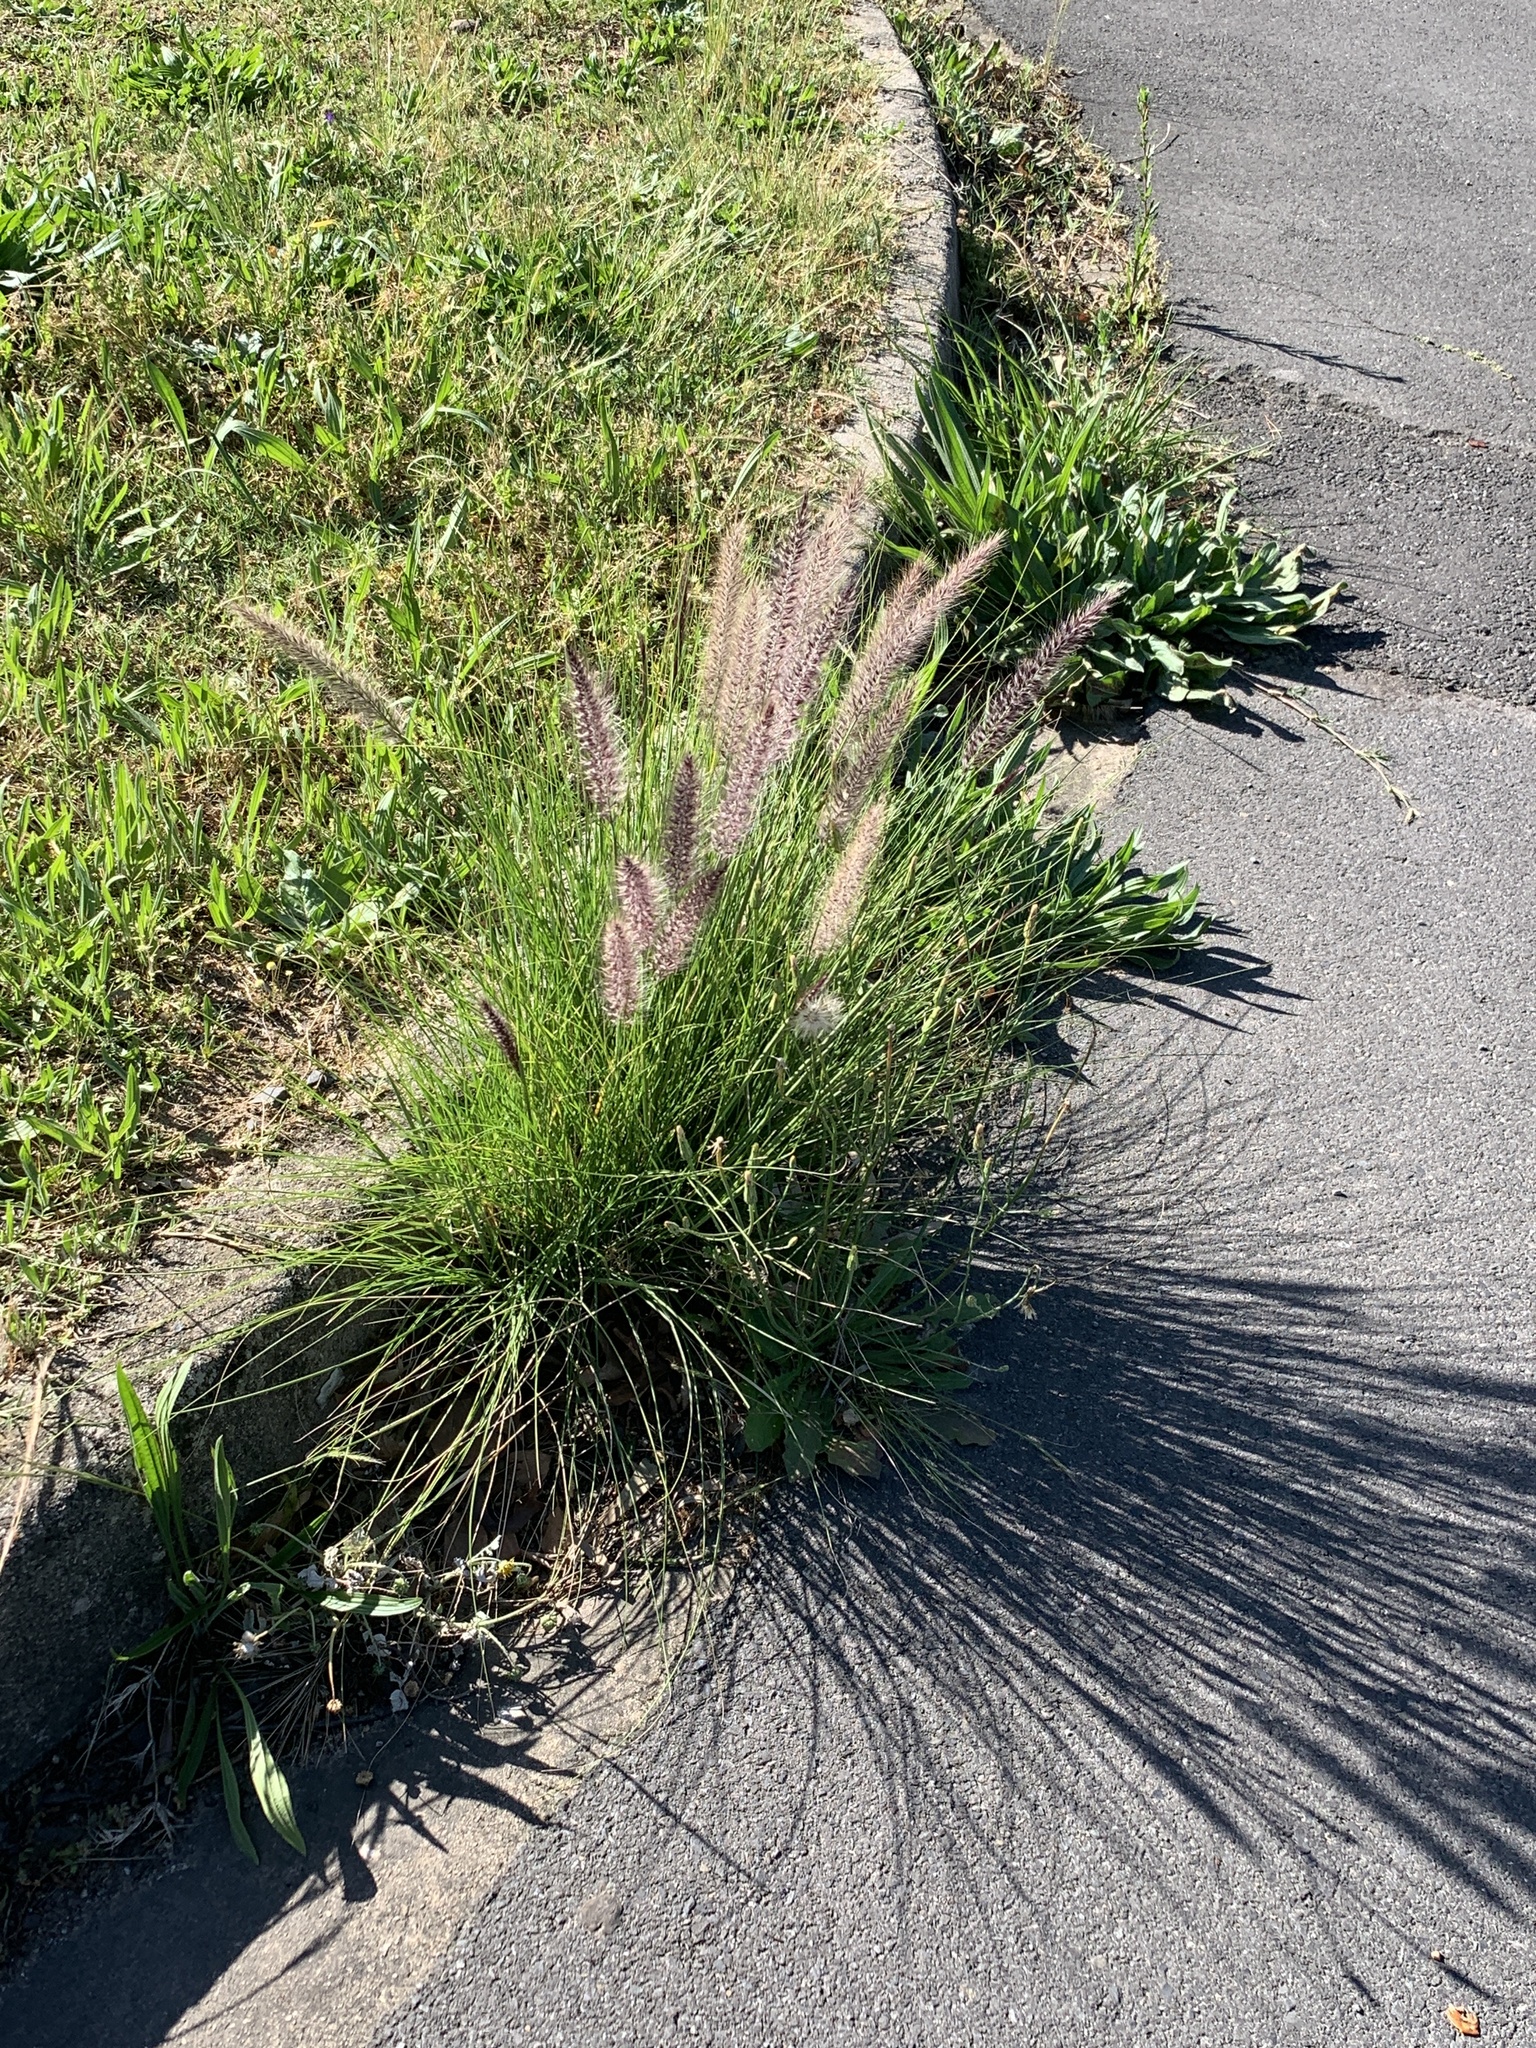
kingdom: Plantae
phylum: Tracheophyta
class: Liliopsida
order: Poales
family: Poaceae
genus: Cenchrus
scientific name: Cenchrus setaceus
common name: Crimson fountaingrass
